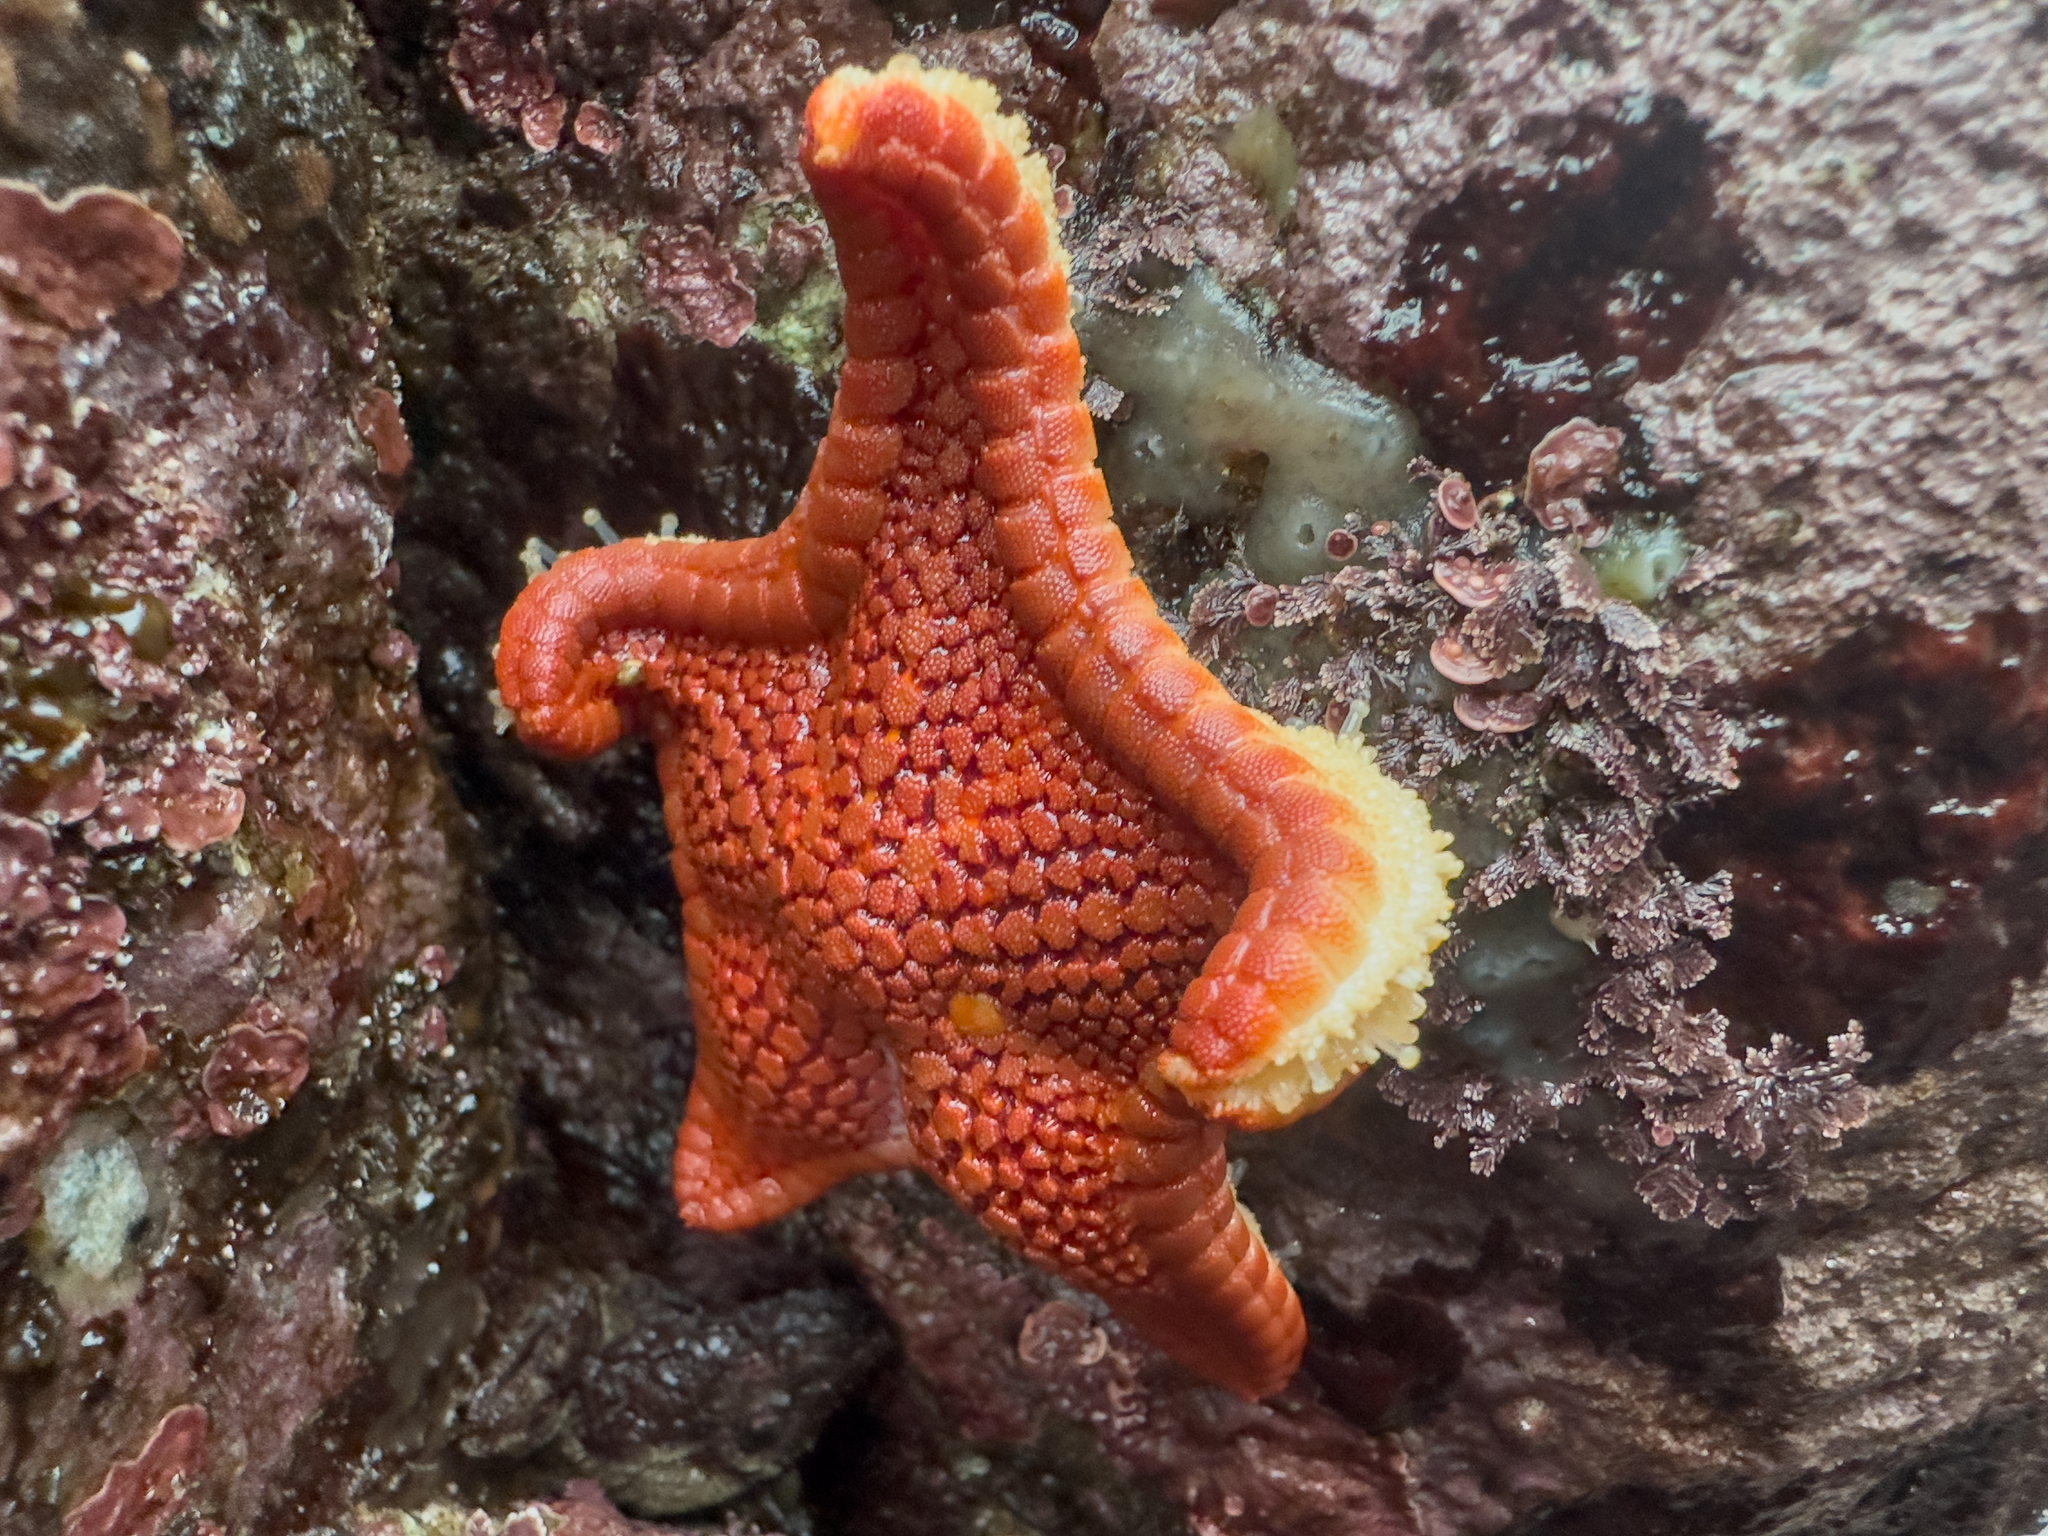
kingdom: Animalia
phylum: Echinodermata
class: Asteroidea
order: Valvatida
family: Odontasteridae
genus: Diplodontias
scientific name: Diplodontias dilatatus
